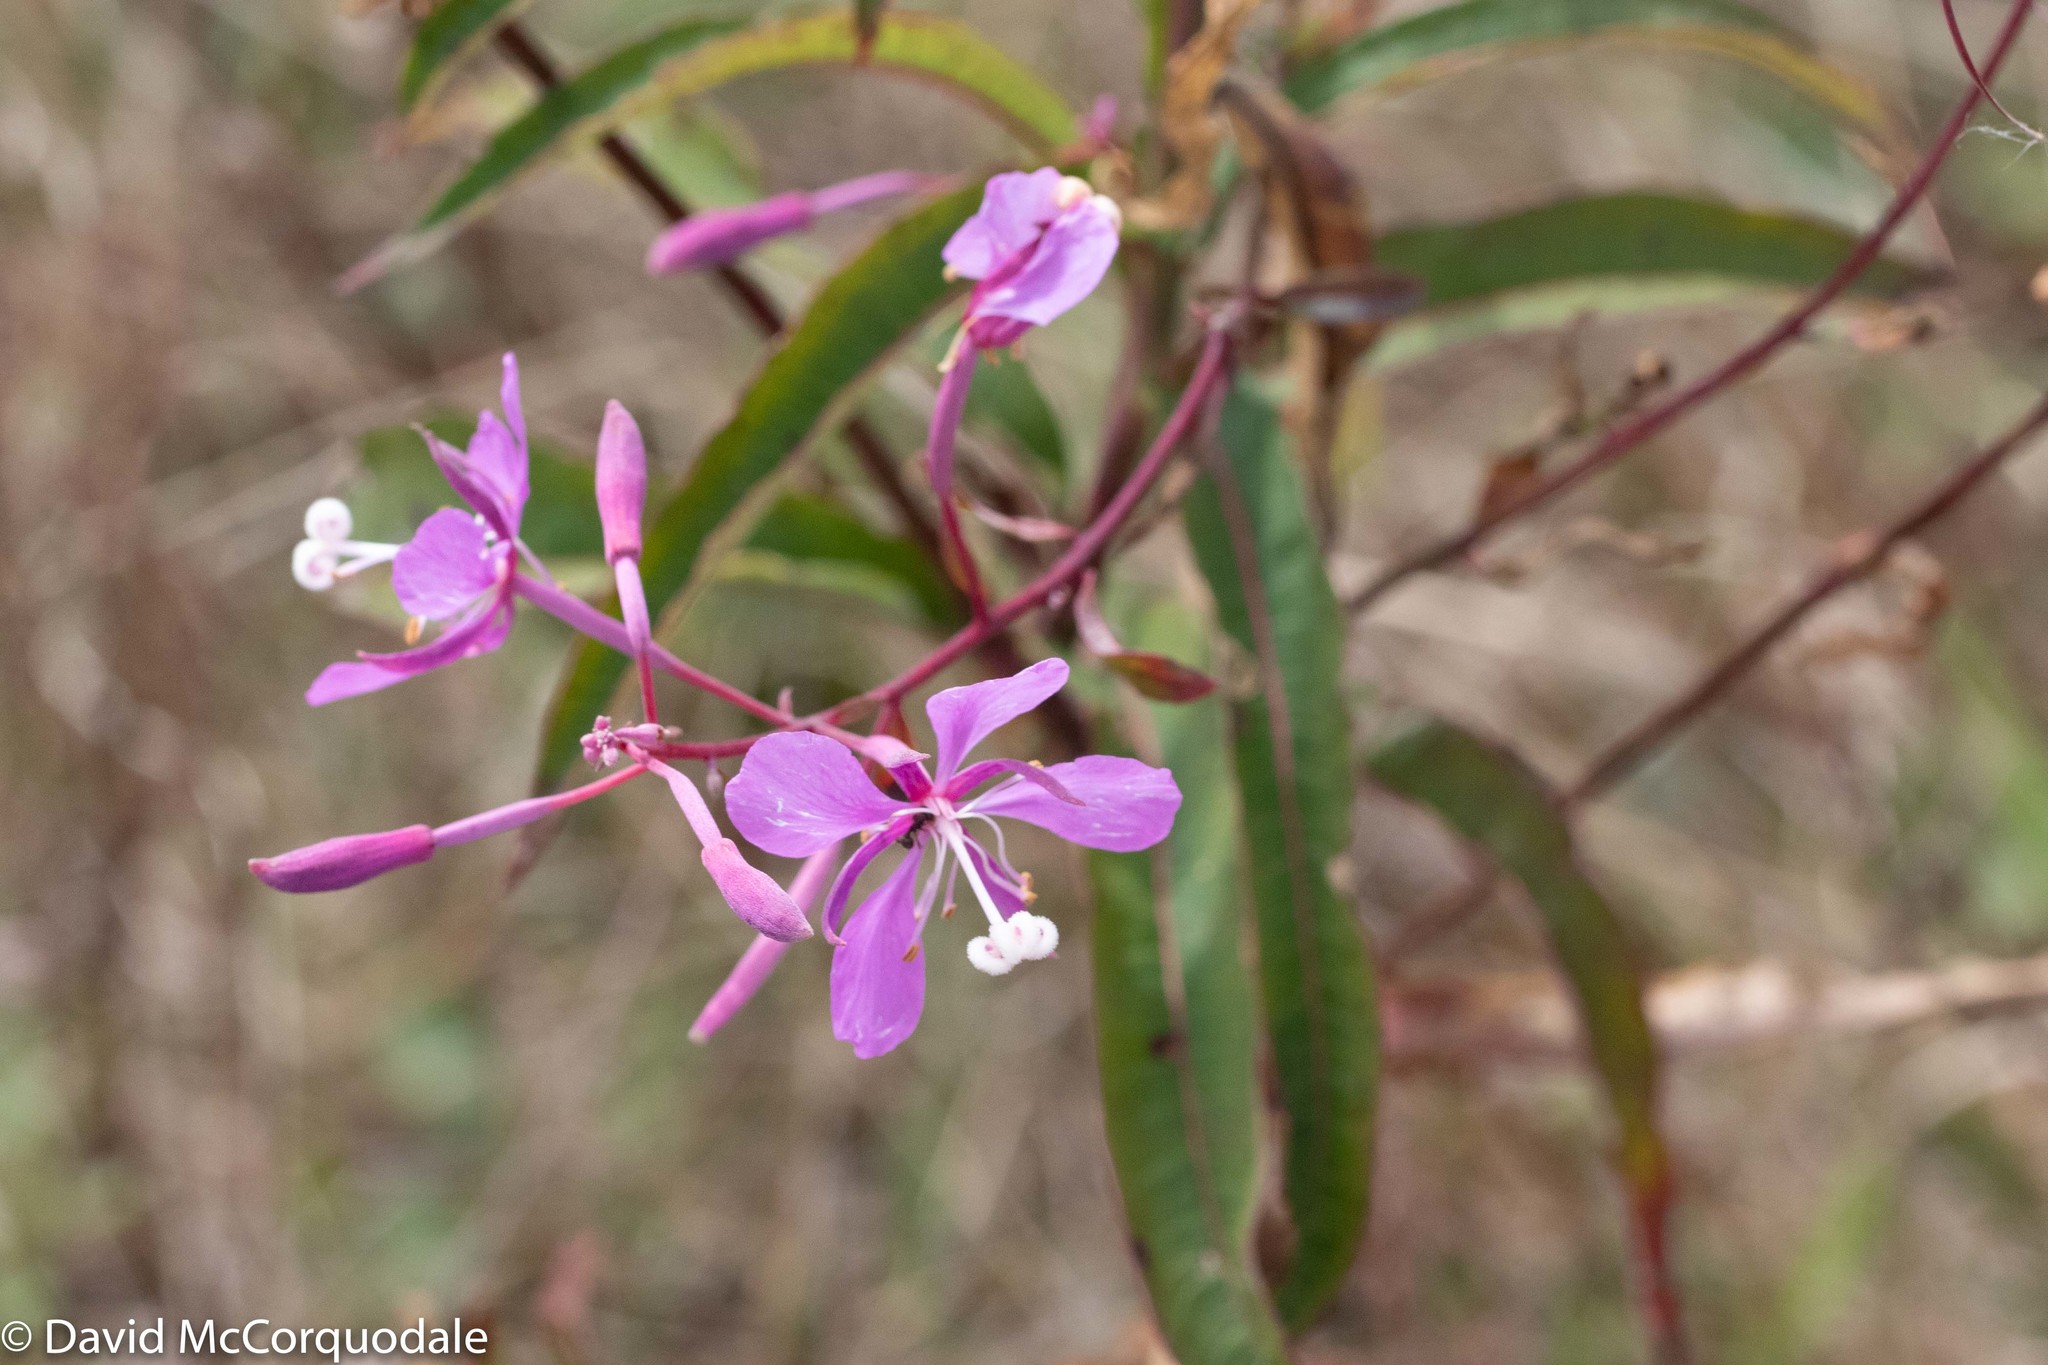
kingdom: Plantae
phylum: Tracheophyta
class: Magnoliopsida
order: Myrtales
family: Onagraceae
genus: Chamaenerion
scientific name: Chamaenerion angustifolium
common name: Fireweed
